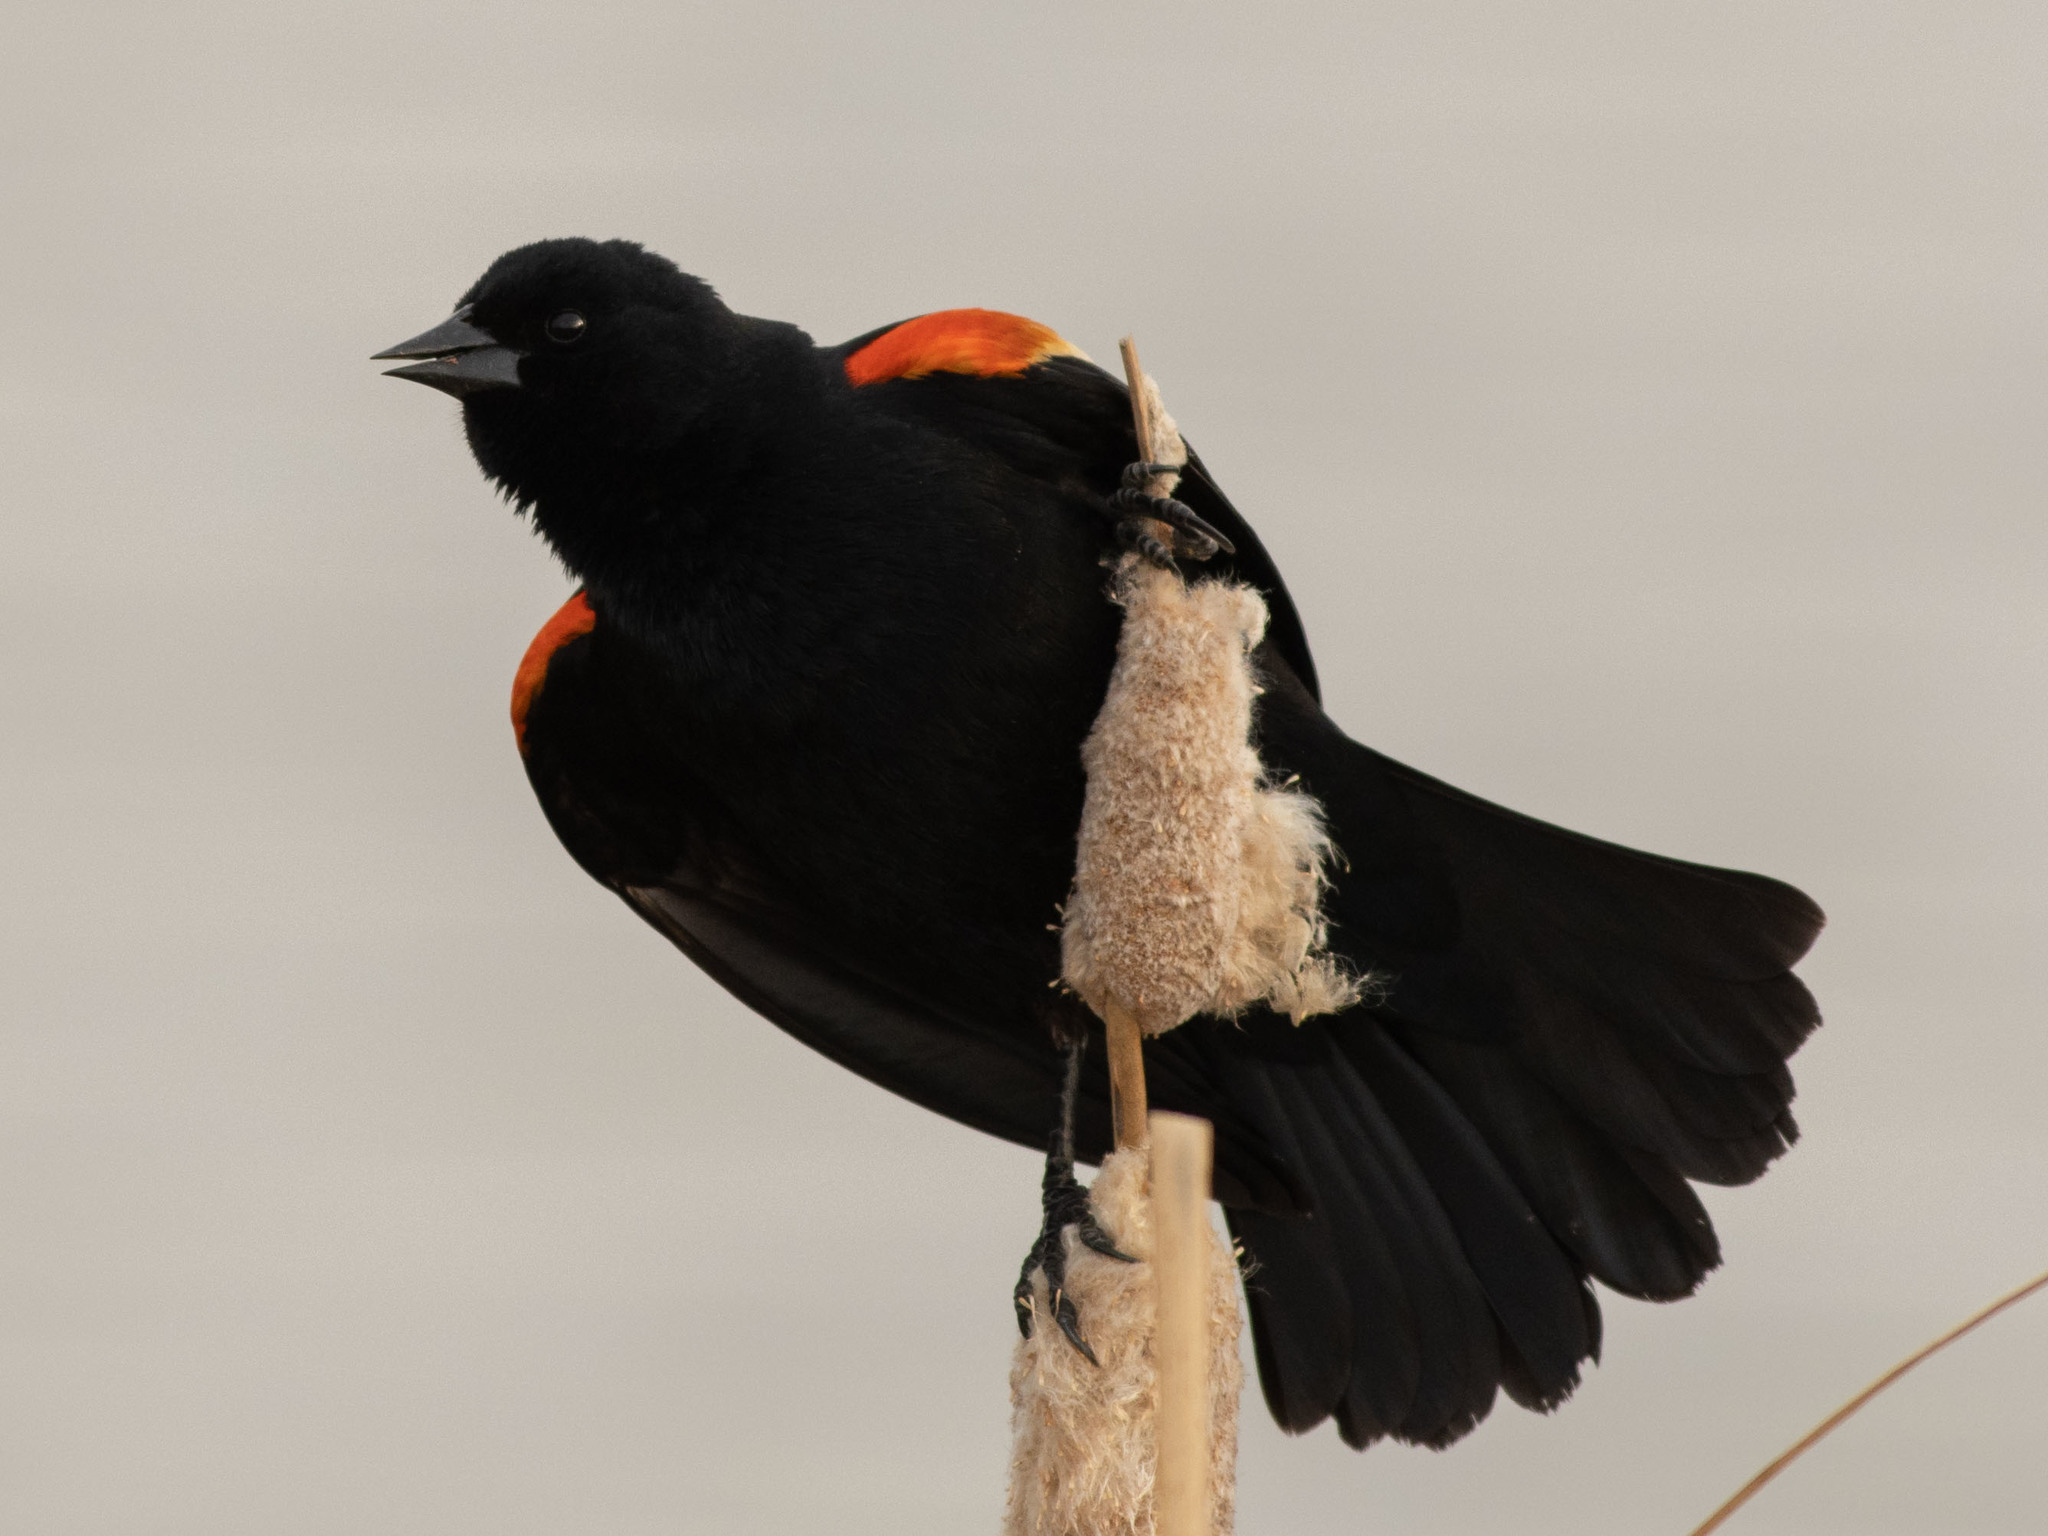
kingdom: Animalia
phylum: Chordata
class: Aves
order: Passeriformes
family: Icteridae
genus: Agelaius
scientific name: Agelaius phoeniceus
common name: Red-winged blackbird
